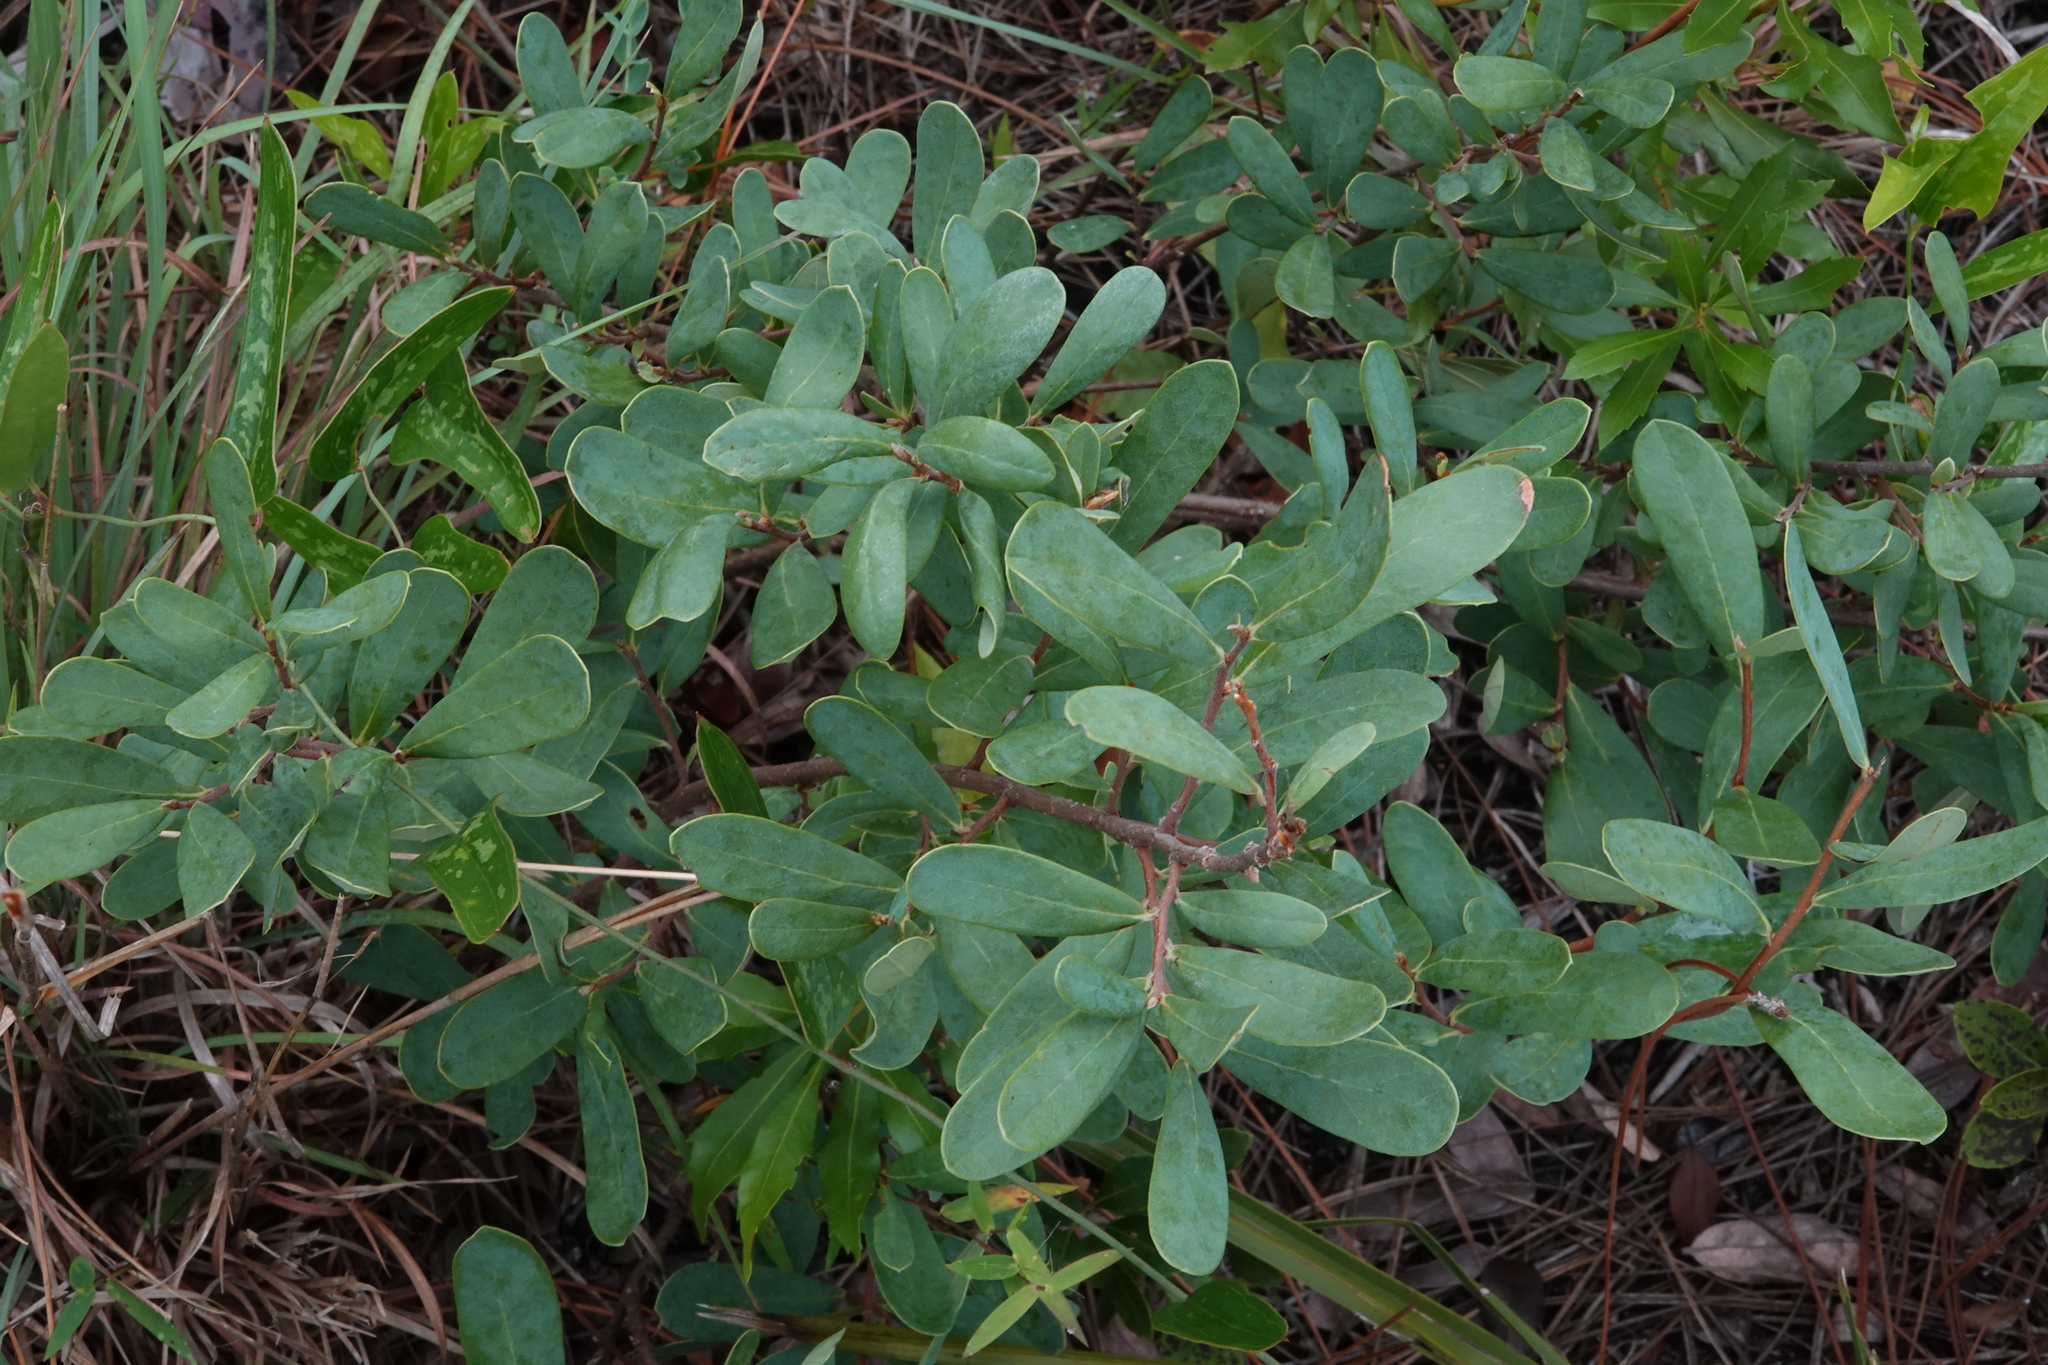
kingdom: Plantae
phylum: Tracheophyta
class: Magnoliopsida
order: Magnoliales
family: Annonaceae
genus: Asimina
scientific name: Asimina reticulata
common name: Flag pawpaw
